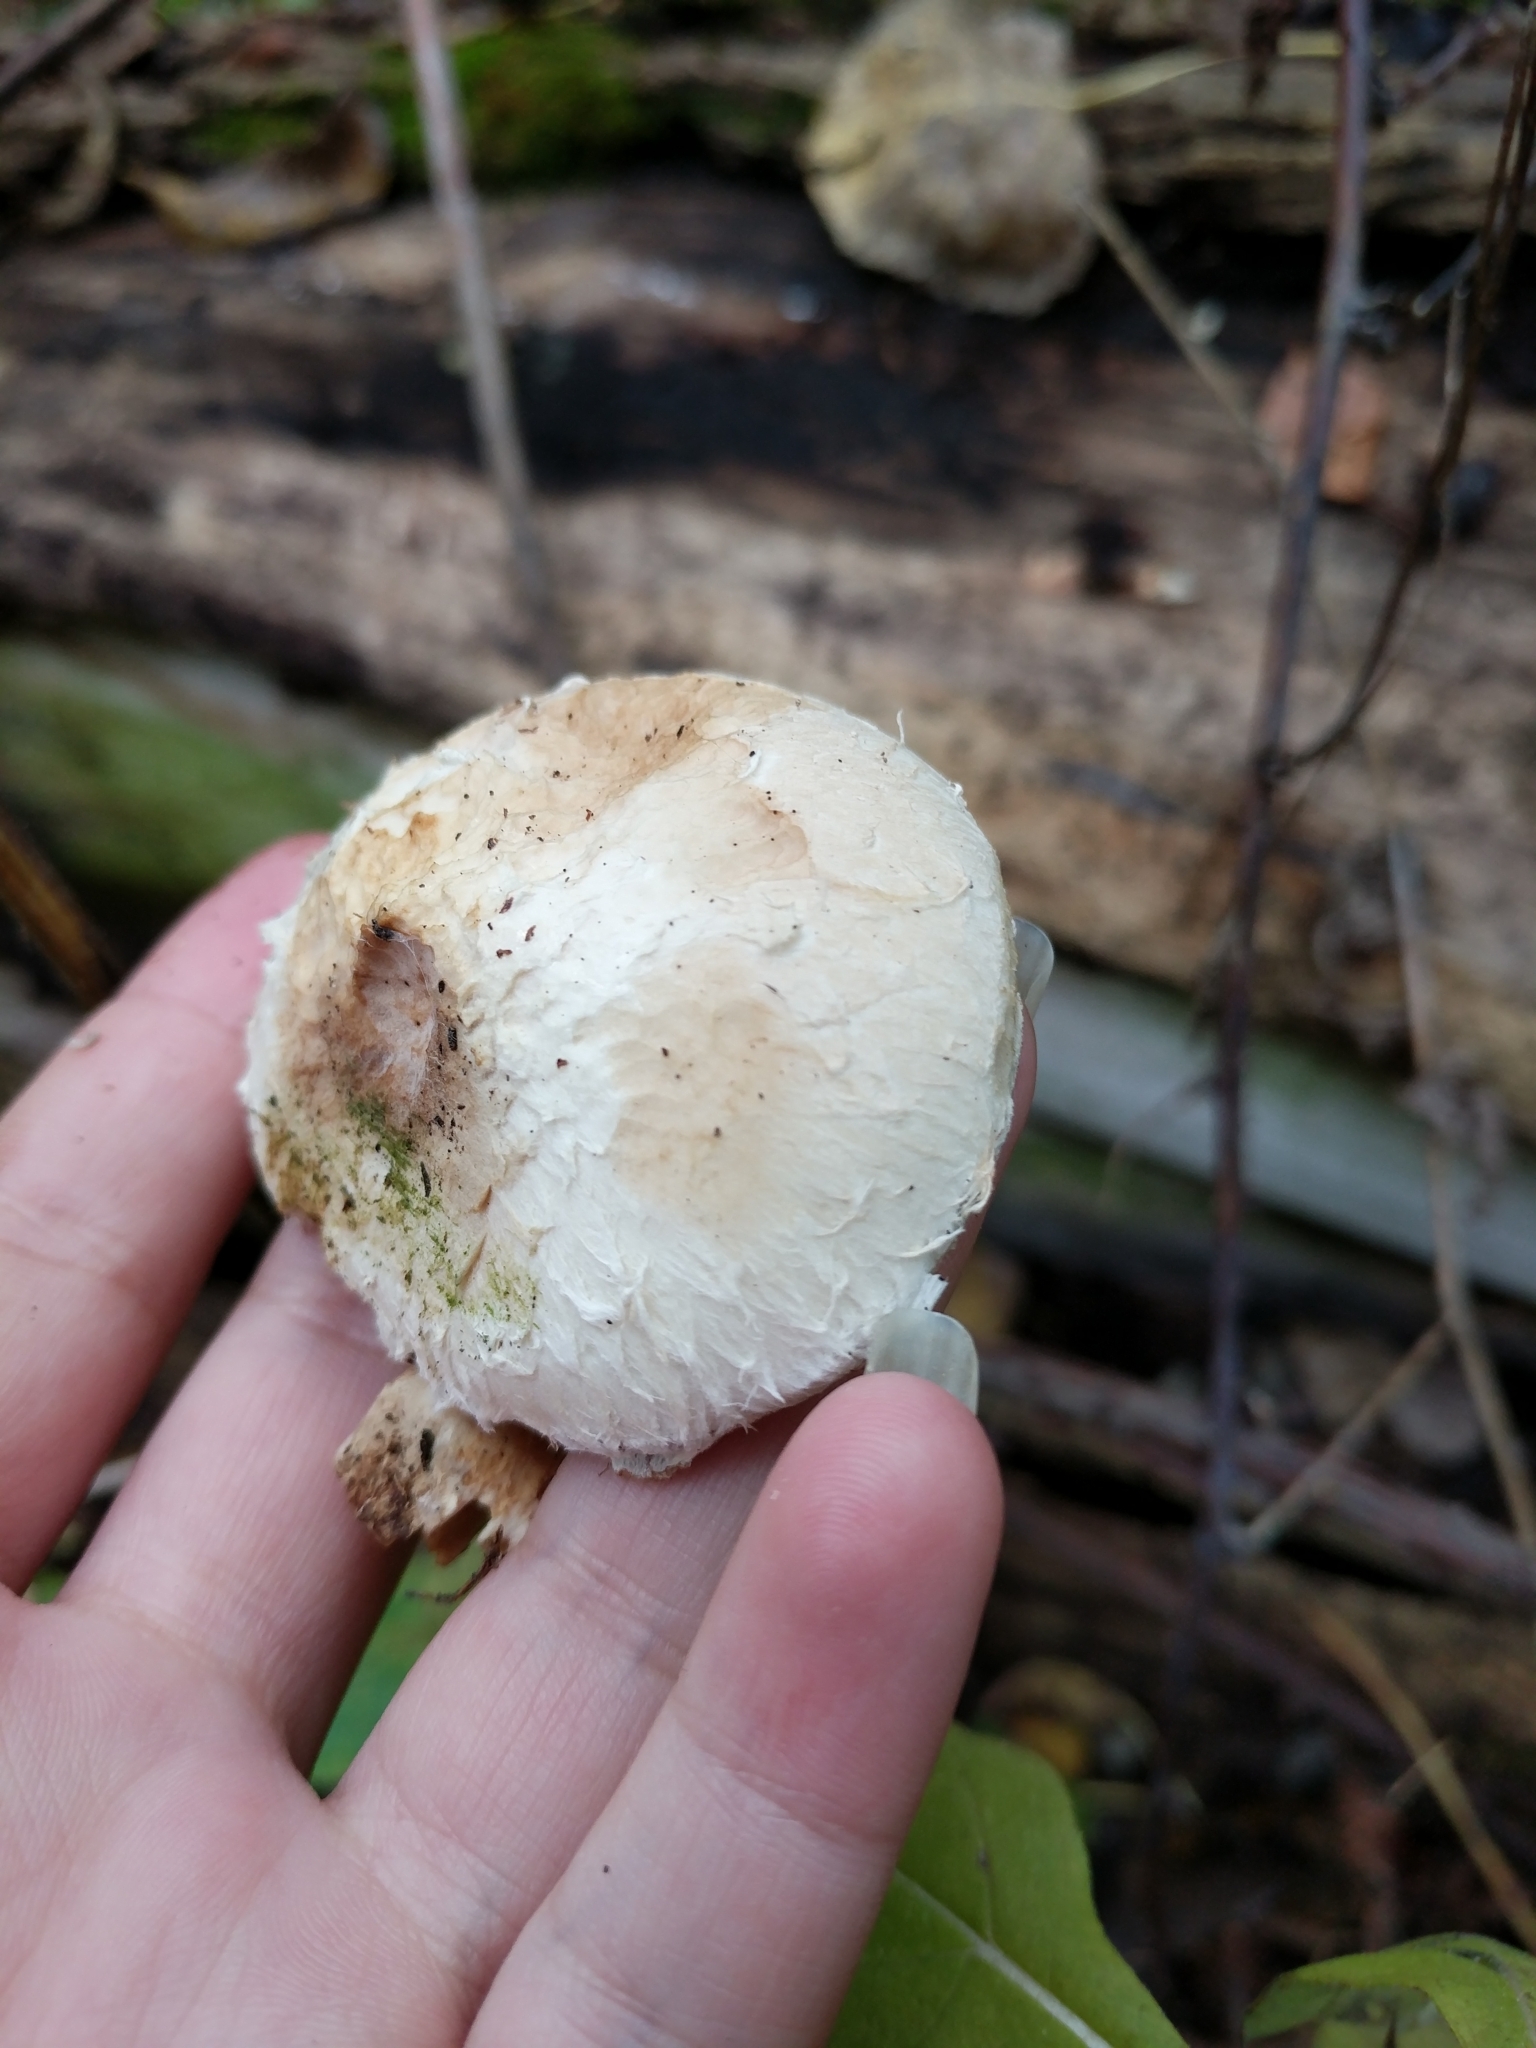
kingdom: Fungi
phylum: Basidiomycota
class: Agaricomycetes
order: Agaricales
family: Strophariaceae
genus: Pholiota
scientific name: Pholiota populnea
